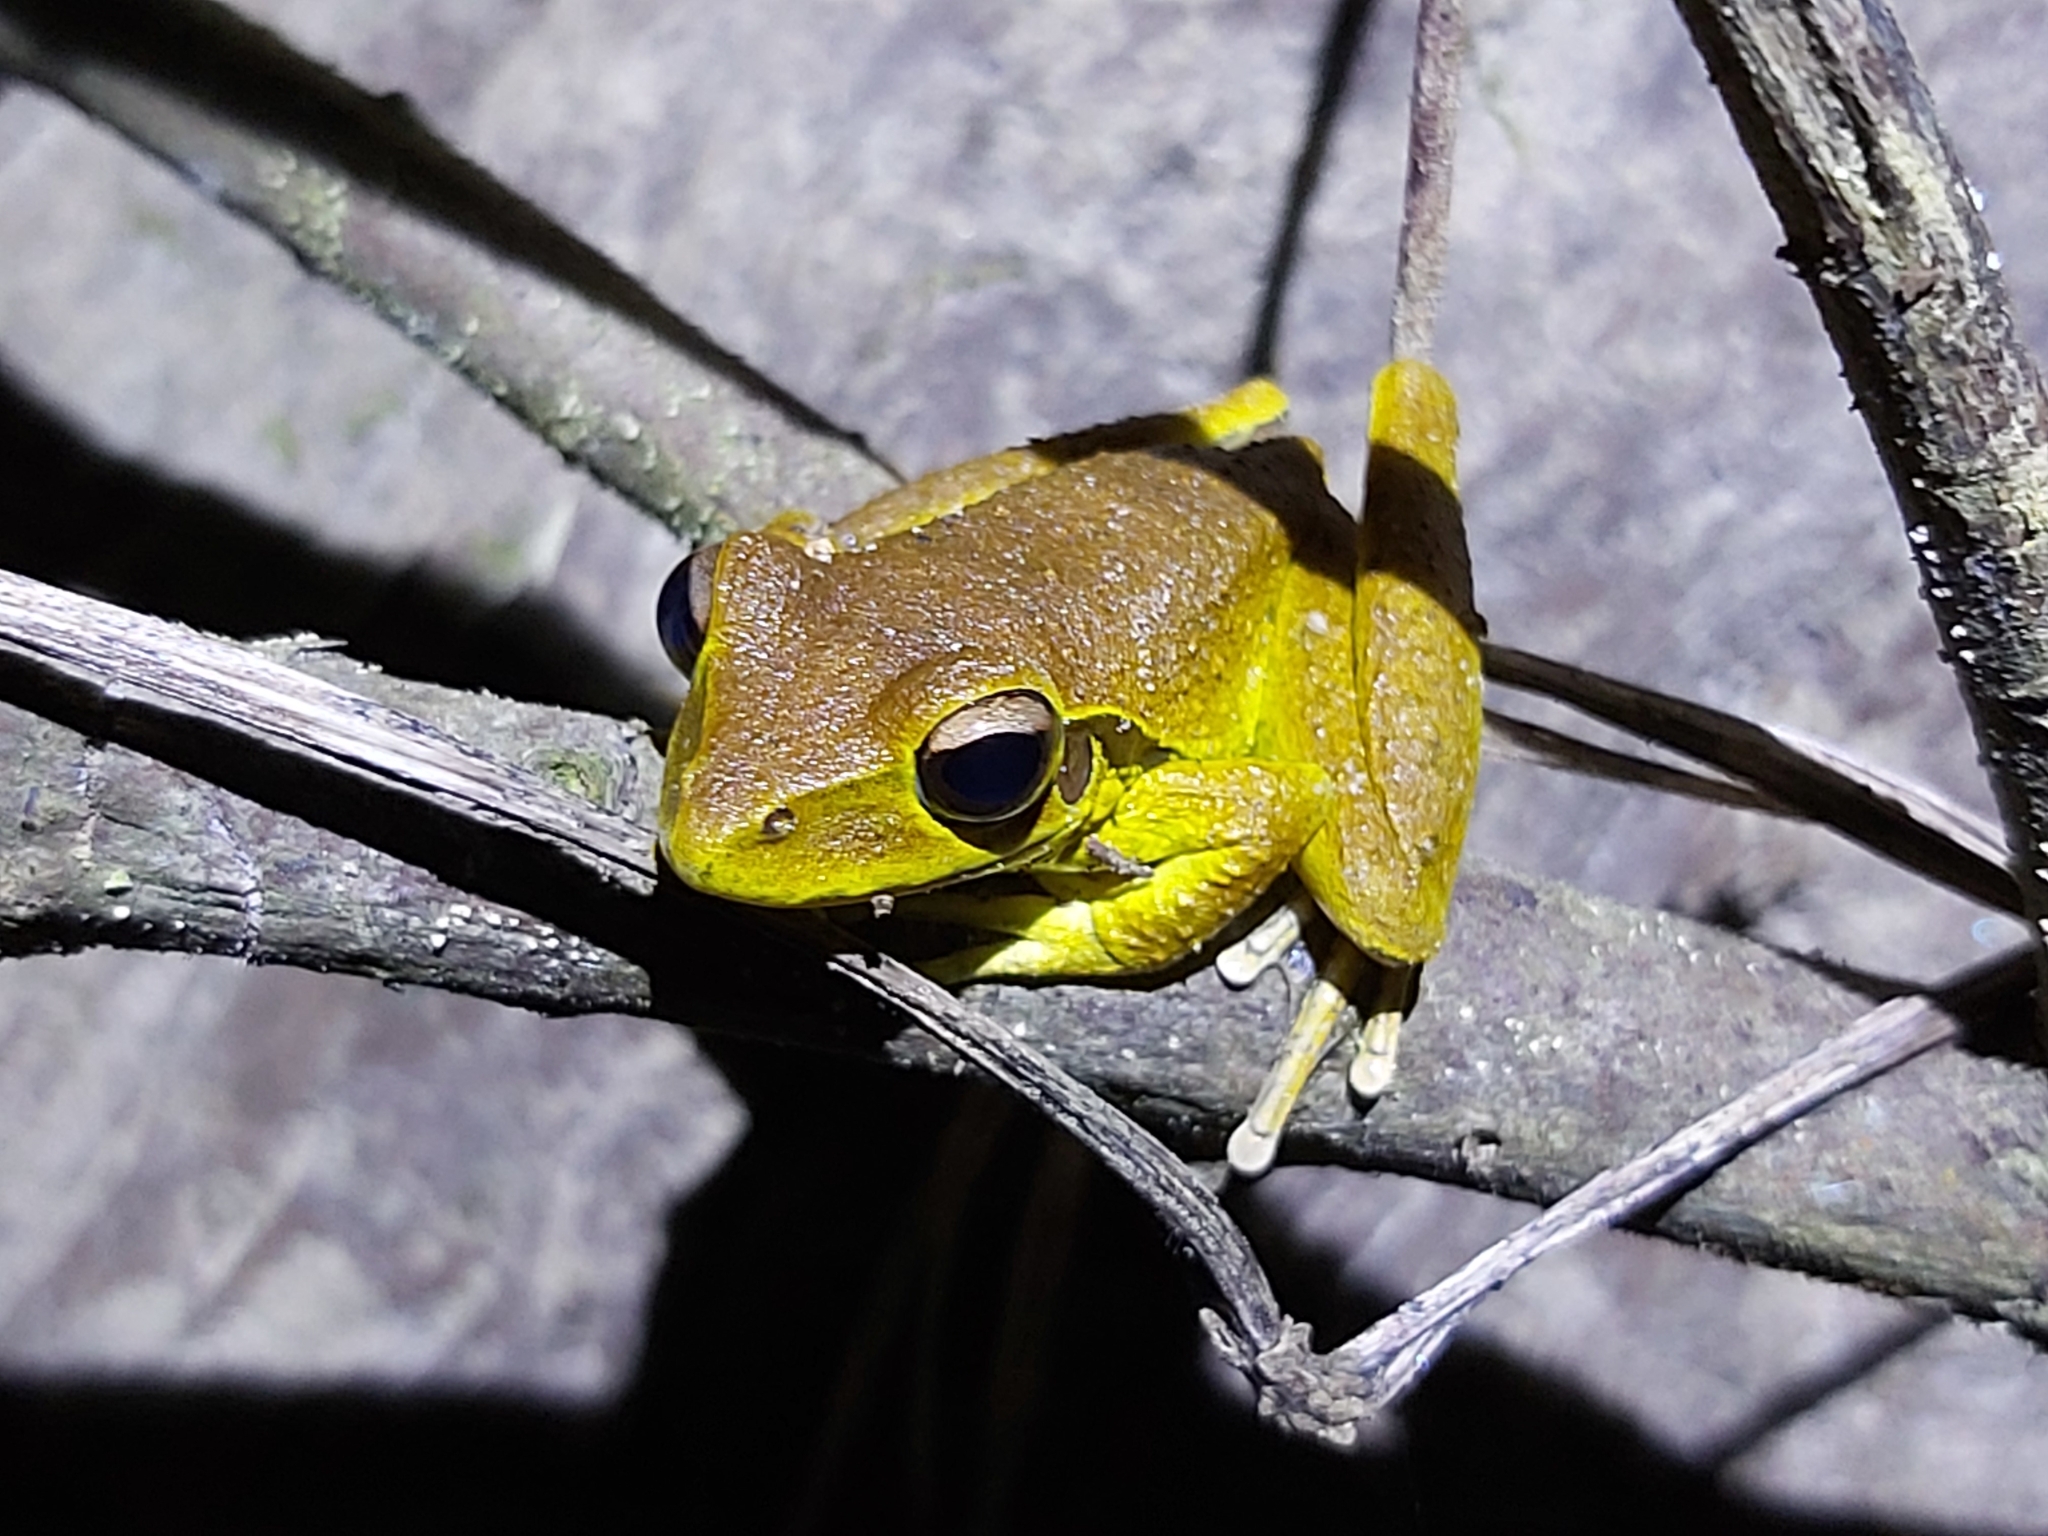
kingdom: Animalia
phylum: Chordata
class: Amphibia
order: Anura
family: Hylidae
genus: Ranoidea
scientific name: Ranoidea
